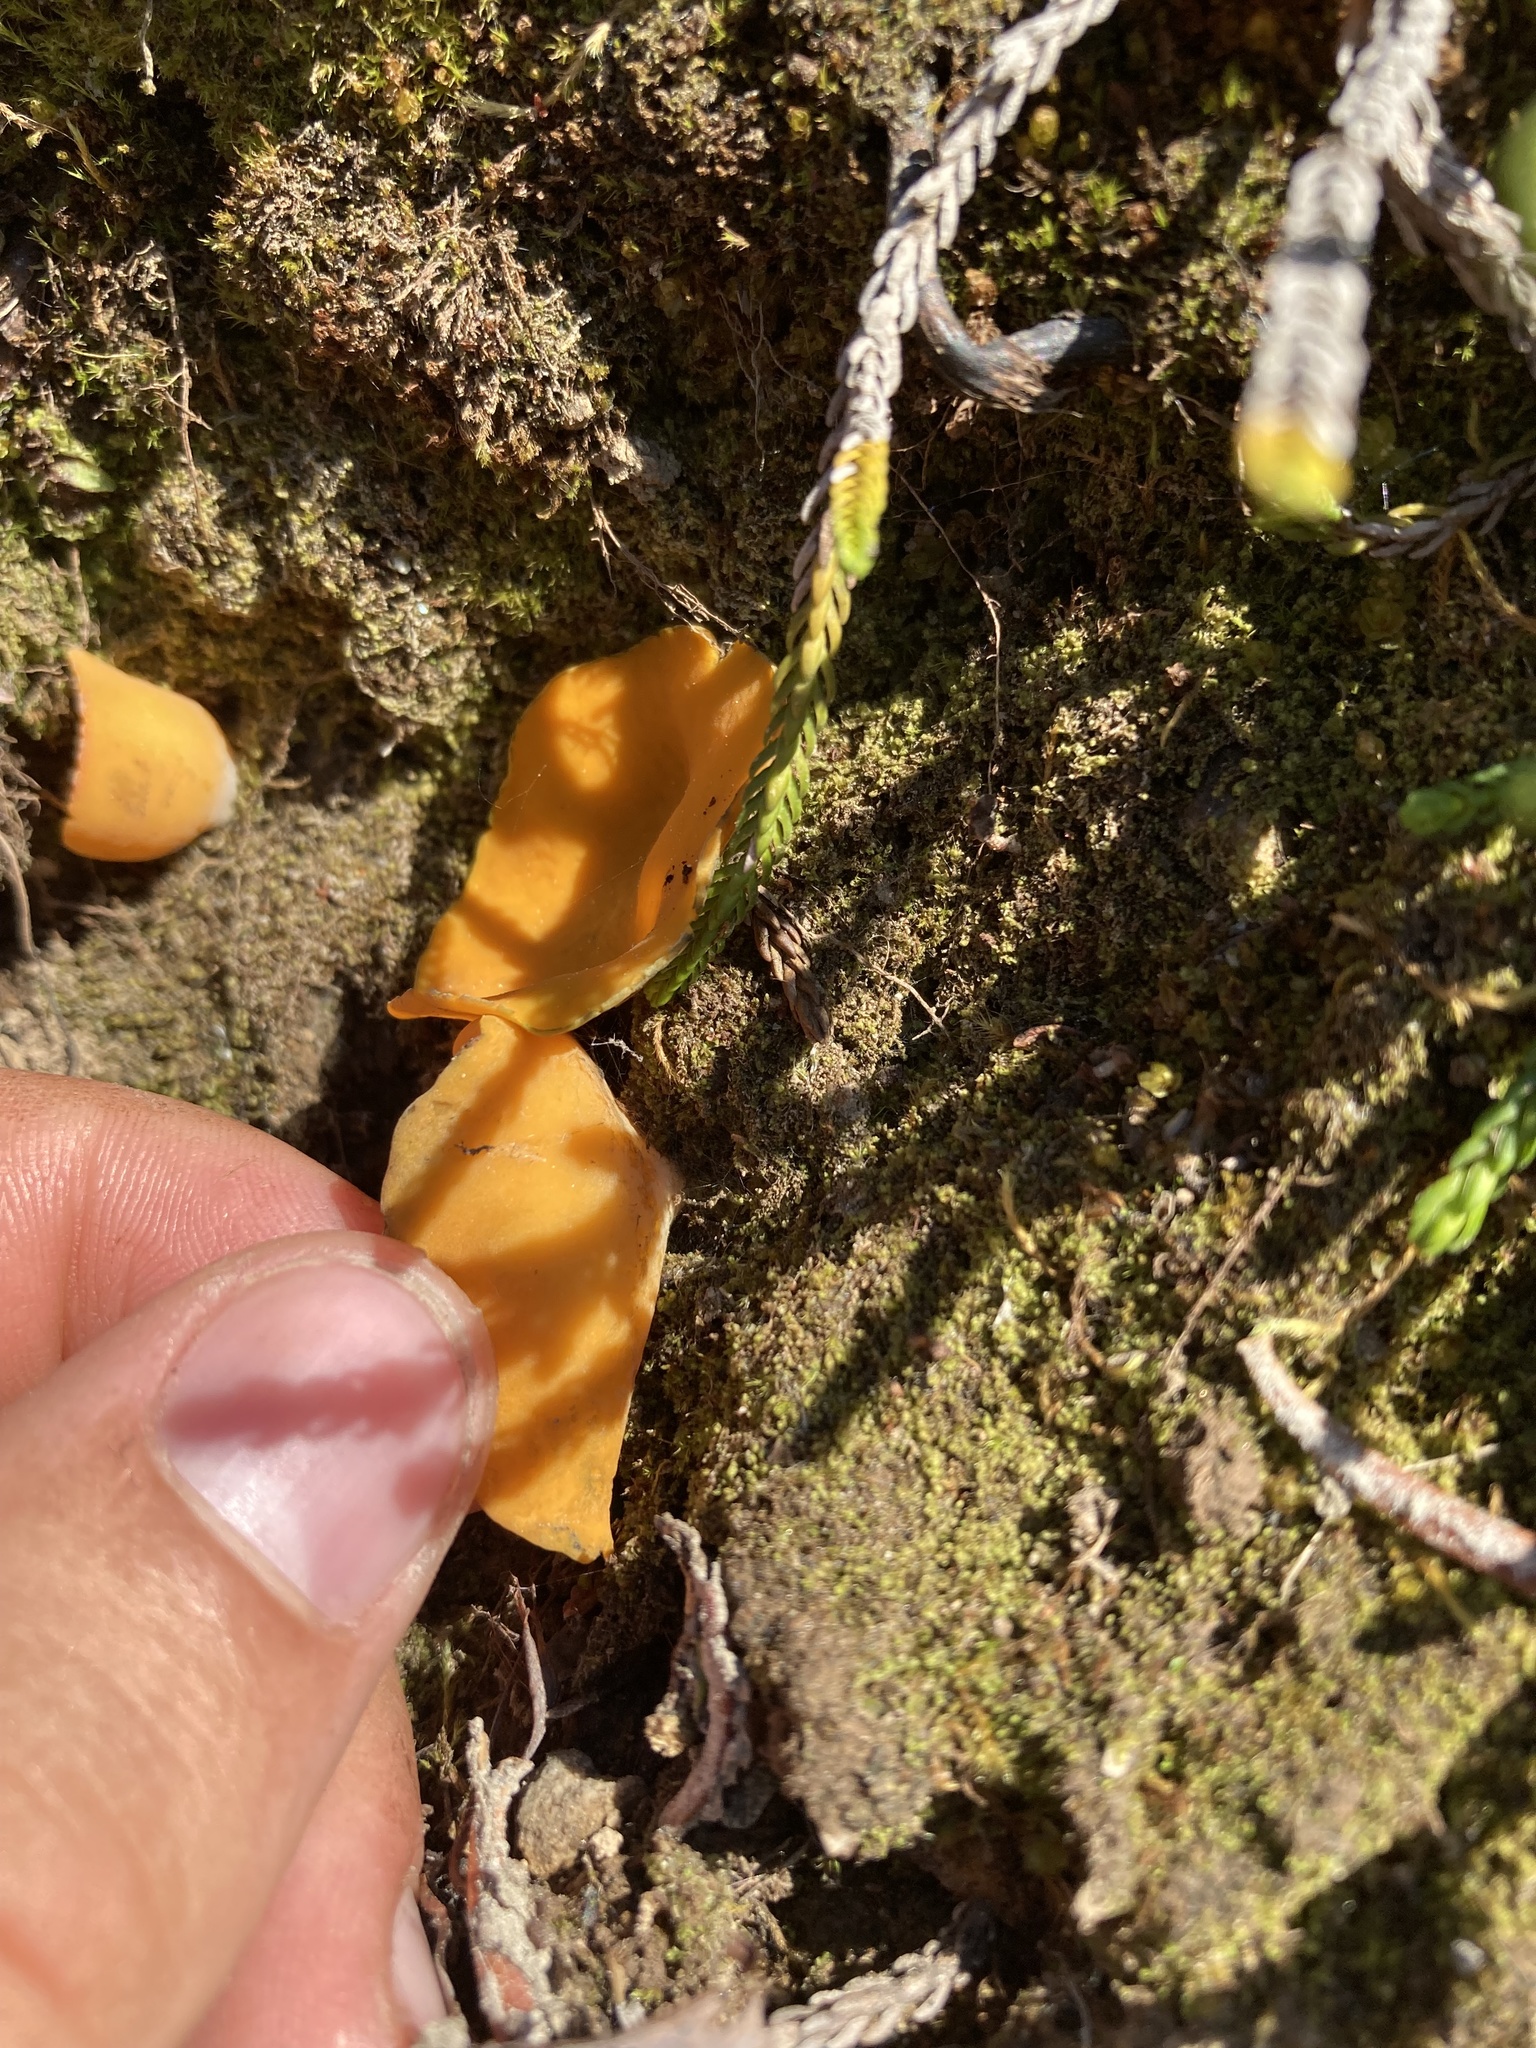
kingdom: Fungi
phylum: Ascomycota
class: Pezizomycetes
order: Pezizales
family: Pyronemataceae
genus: Aleuria
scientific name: Aleuria aurantia
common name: Orange peel fungus
